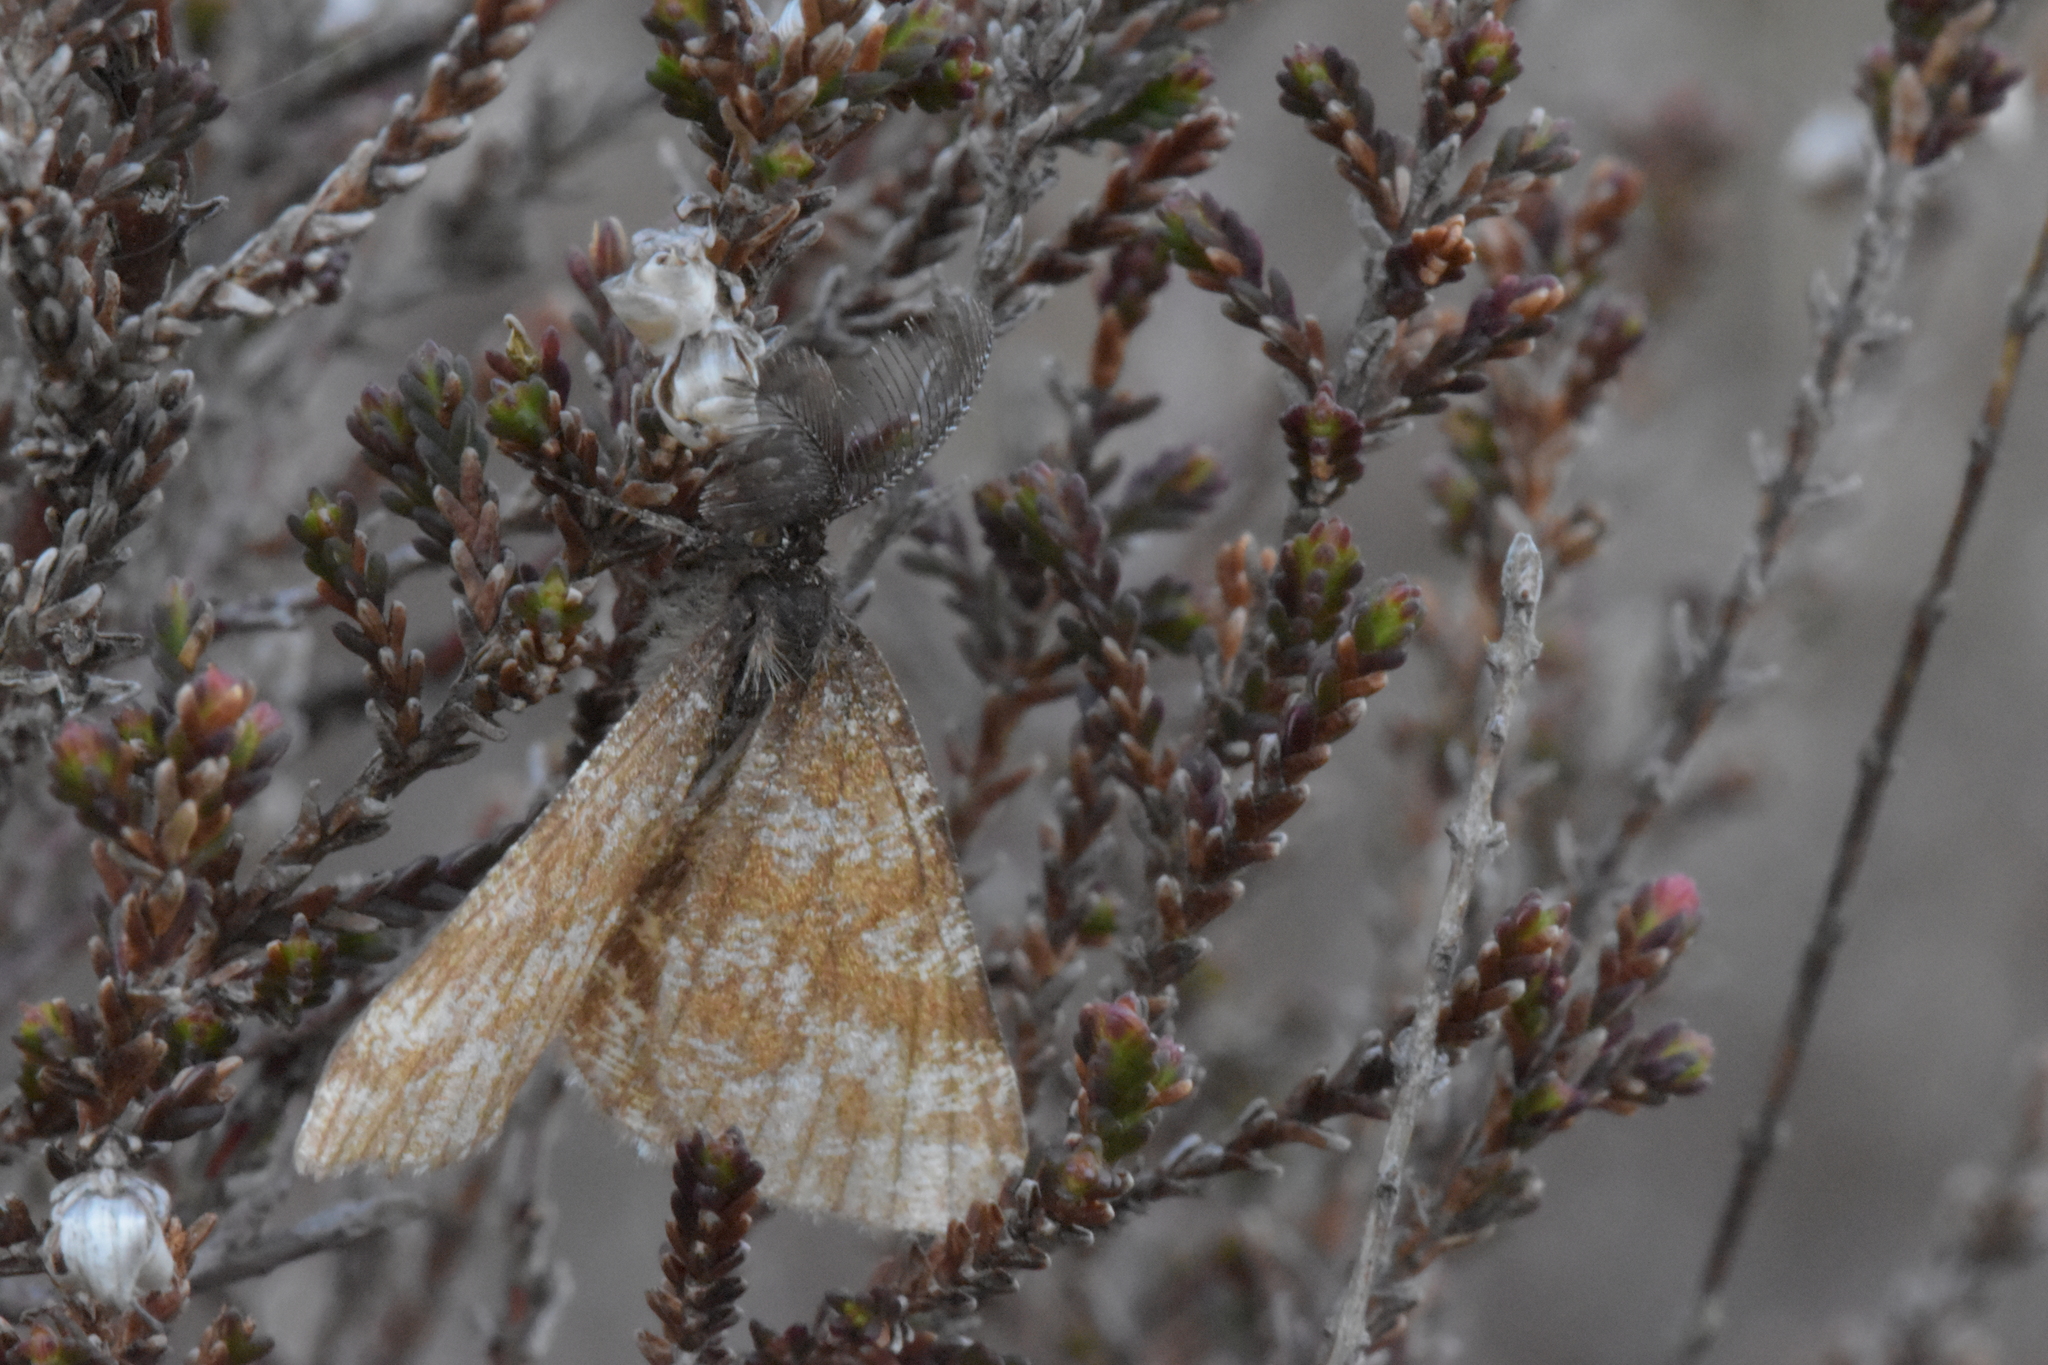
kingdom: Animalia
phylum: Arthropoda
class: Insecta
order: Lepidoptera
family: Geometridae
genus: Ematurga
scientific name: Ematurga atomaria
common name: Common heath
